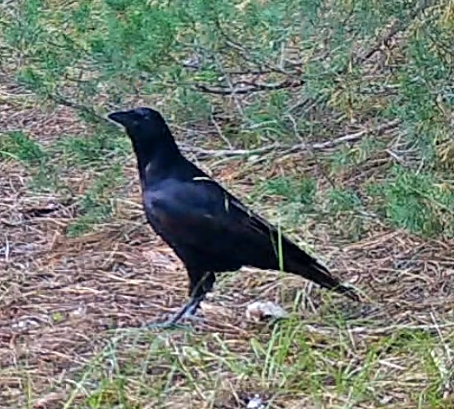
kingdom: Animalia
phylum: Chordata
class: Aves
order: Passeriformes
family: Corvidae
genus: Corvus
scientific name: Corvus brachyrhynchos
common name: American crow
